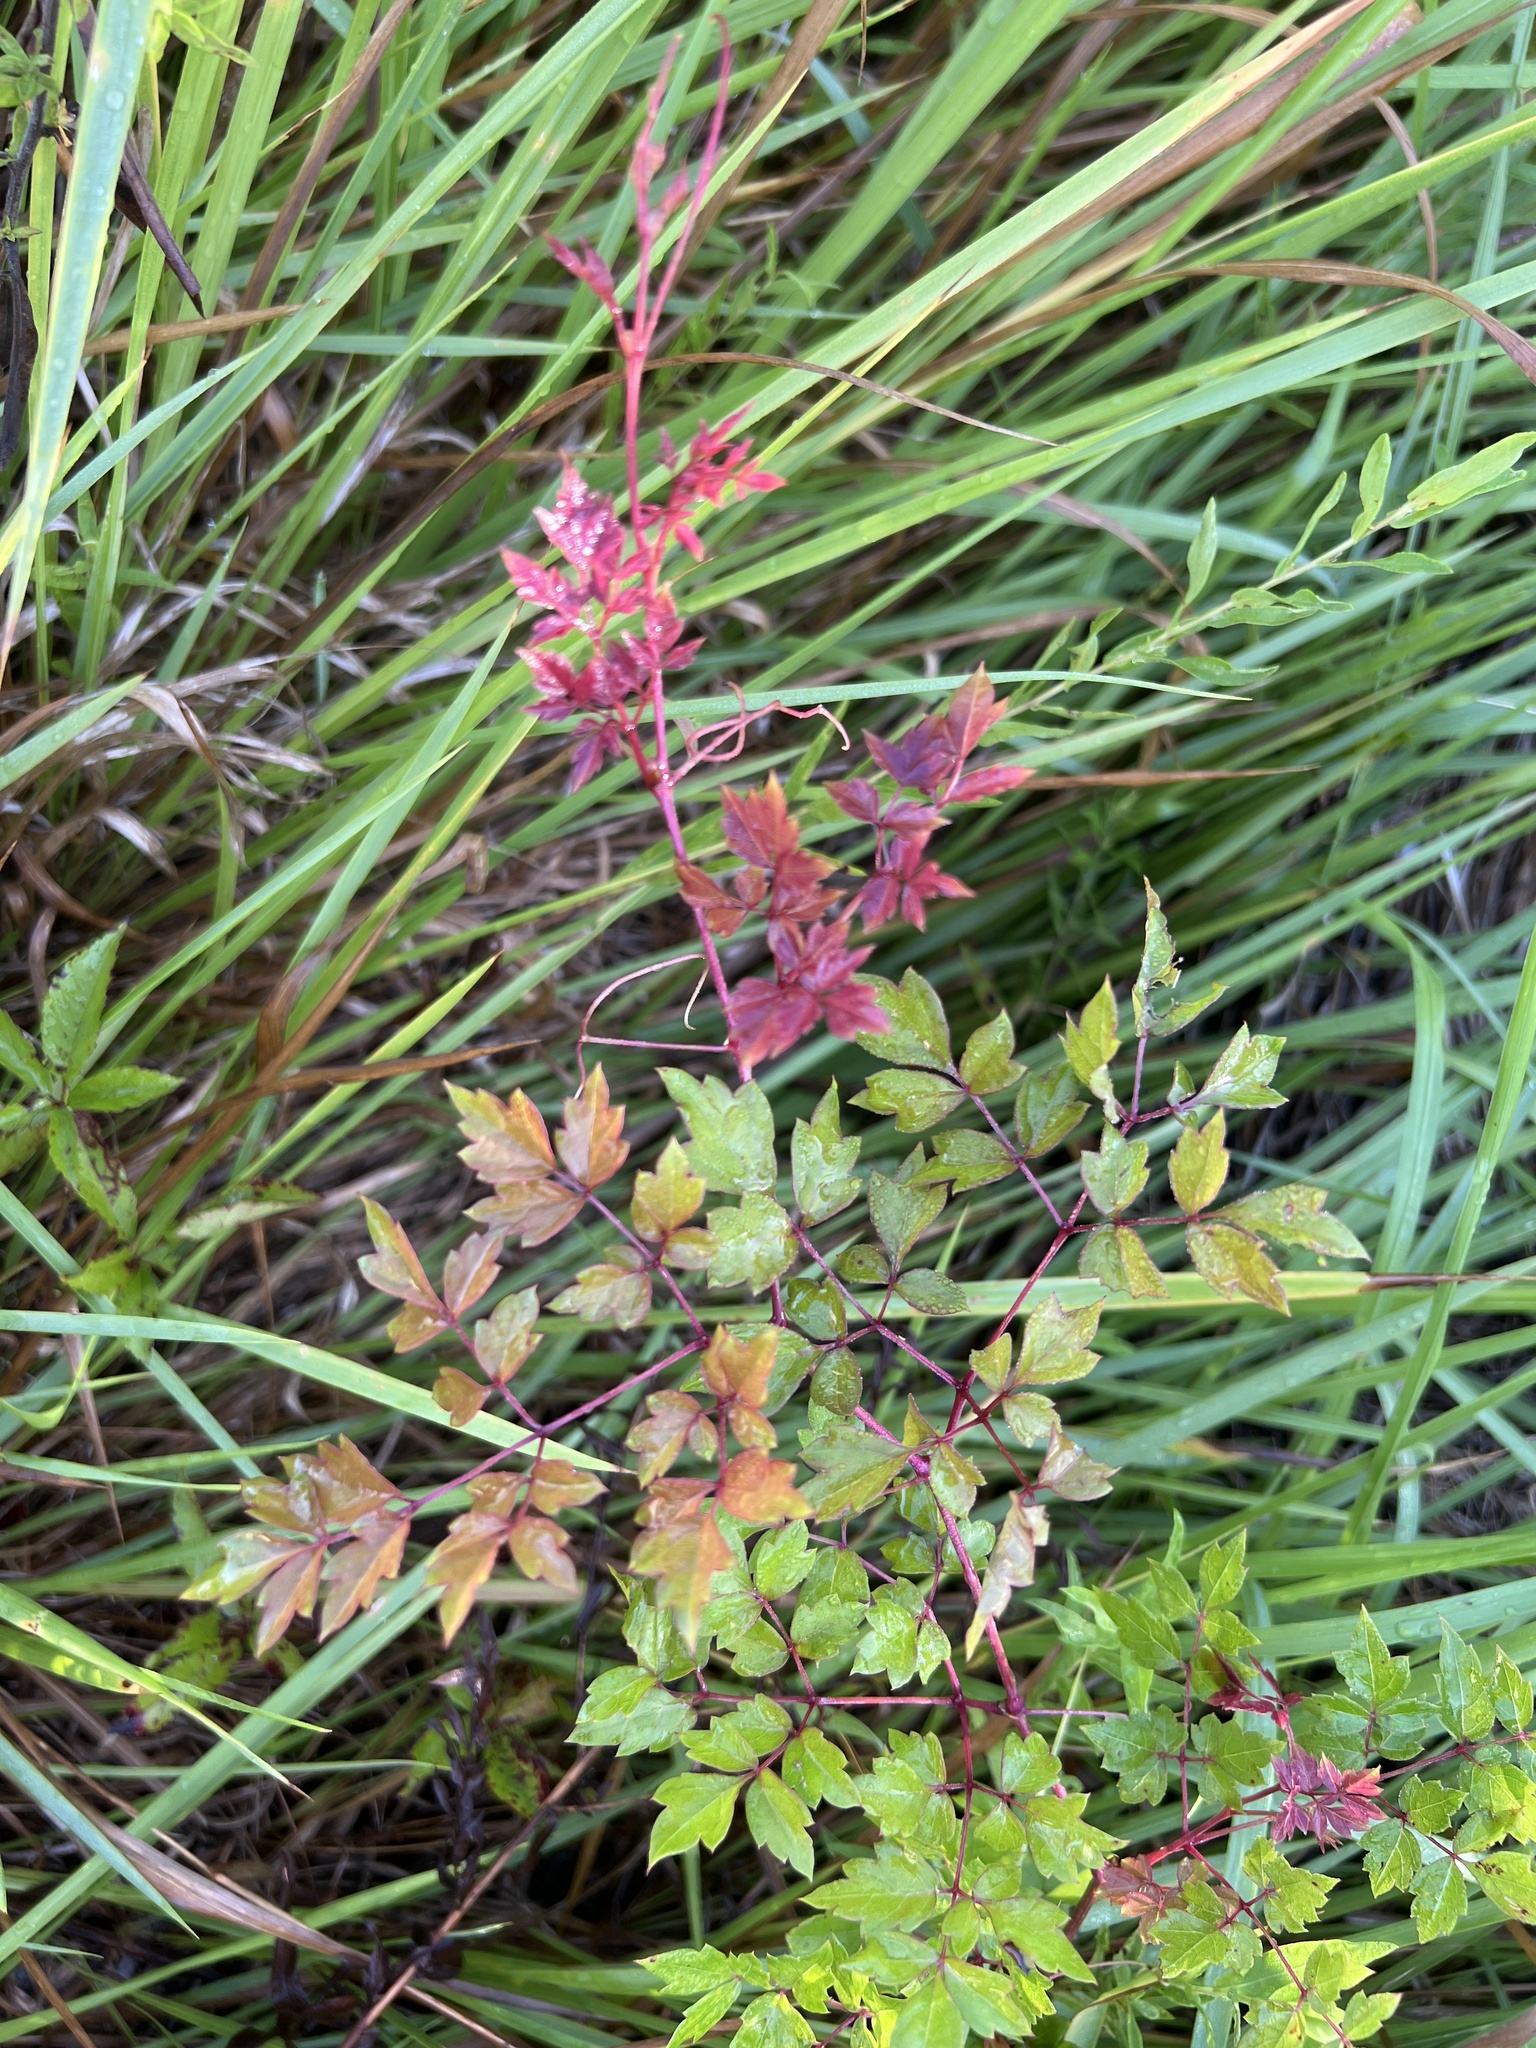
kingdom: Plantae
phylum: Tracheophyta
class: Magnoliopsida
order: Vitales
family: Vitaceae
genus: Nekemias
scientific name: Nekemias arborea
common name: Peppervine
